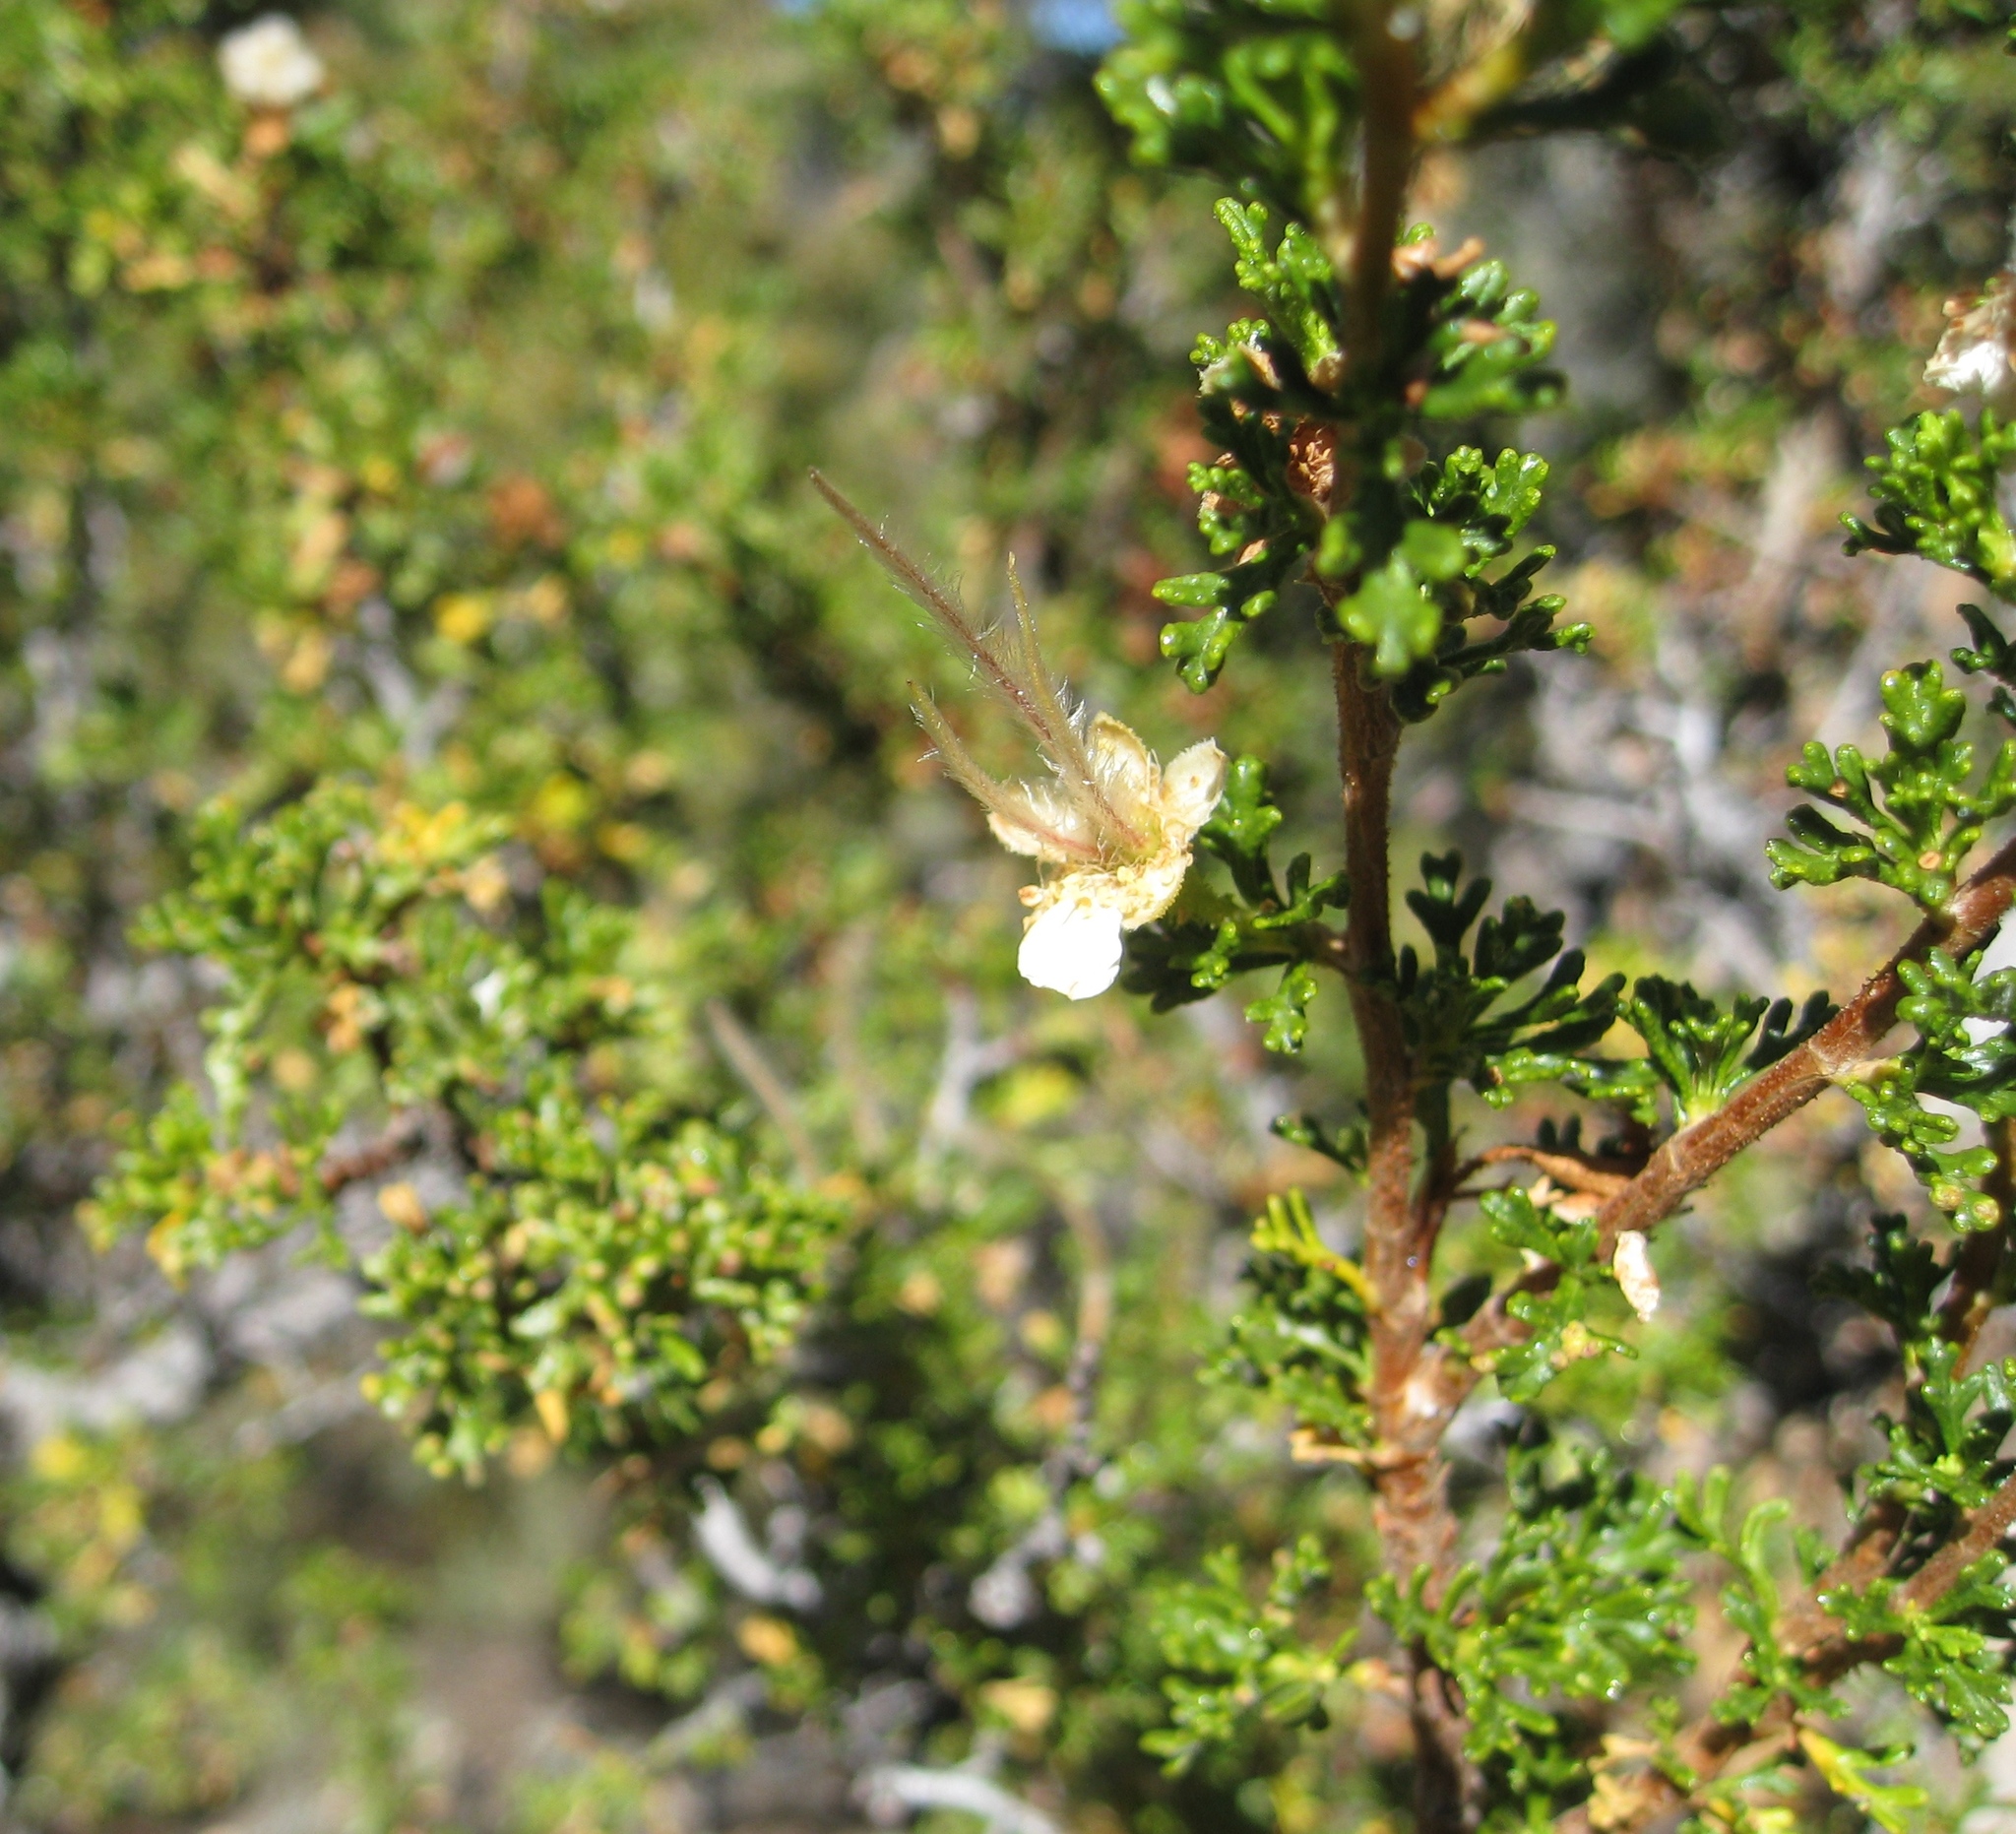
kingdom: Plantae
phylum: Tracheophyta
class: Magnoliopsida
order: Rosales
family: Rosaceae
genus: Purshia
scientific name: Purshia stansburiana
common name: Stansbury's cliffrose
